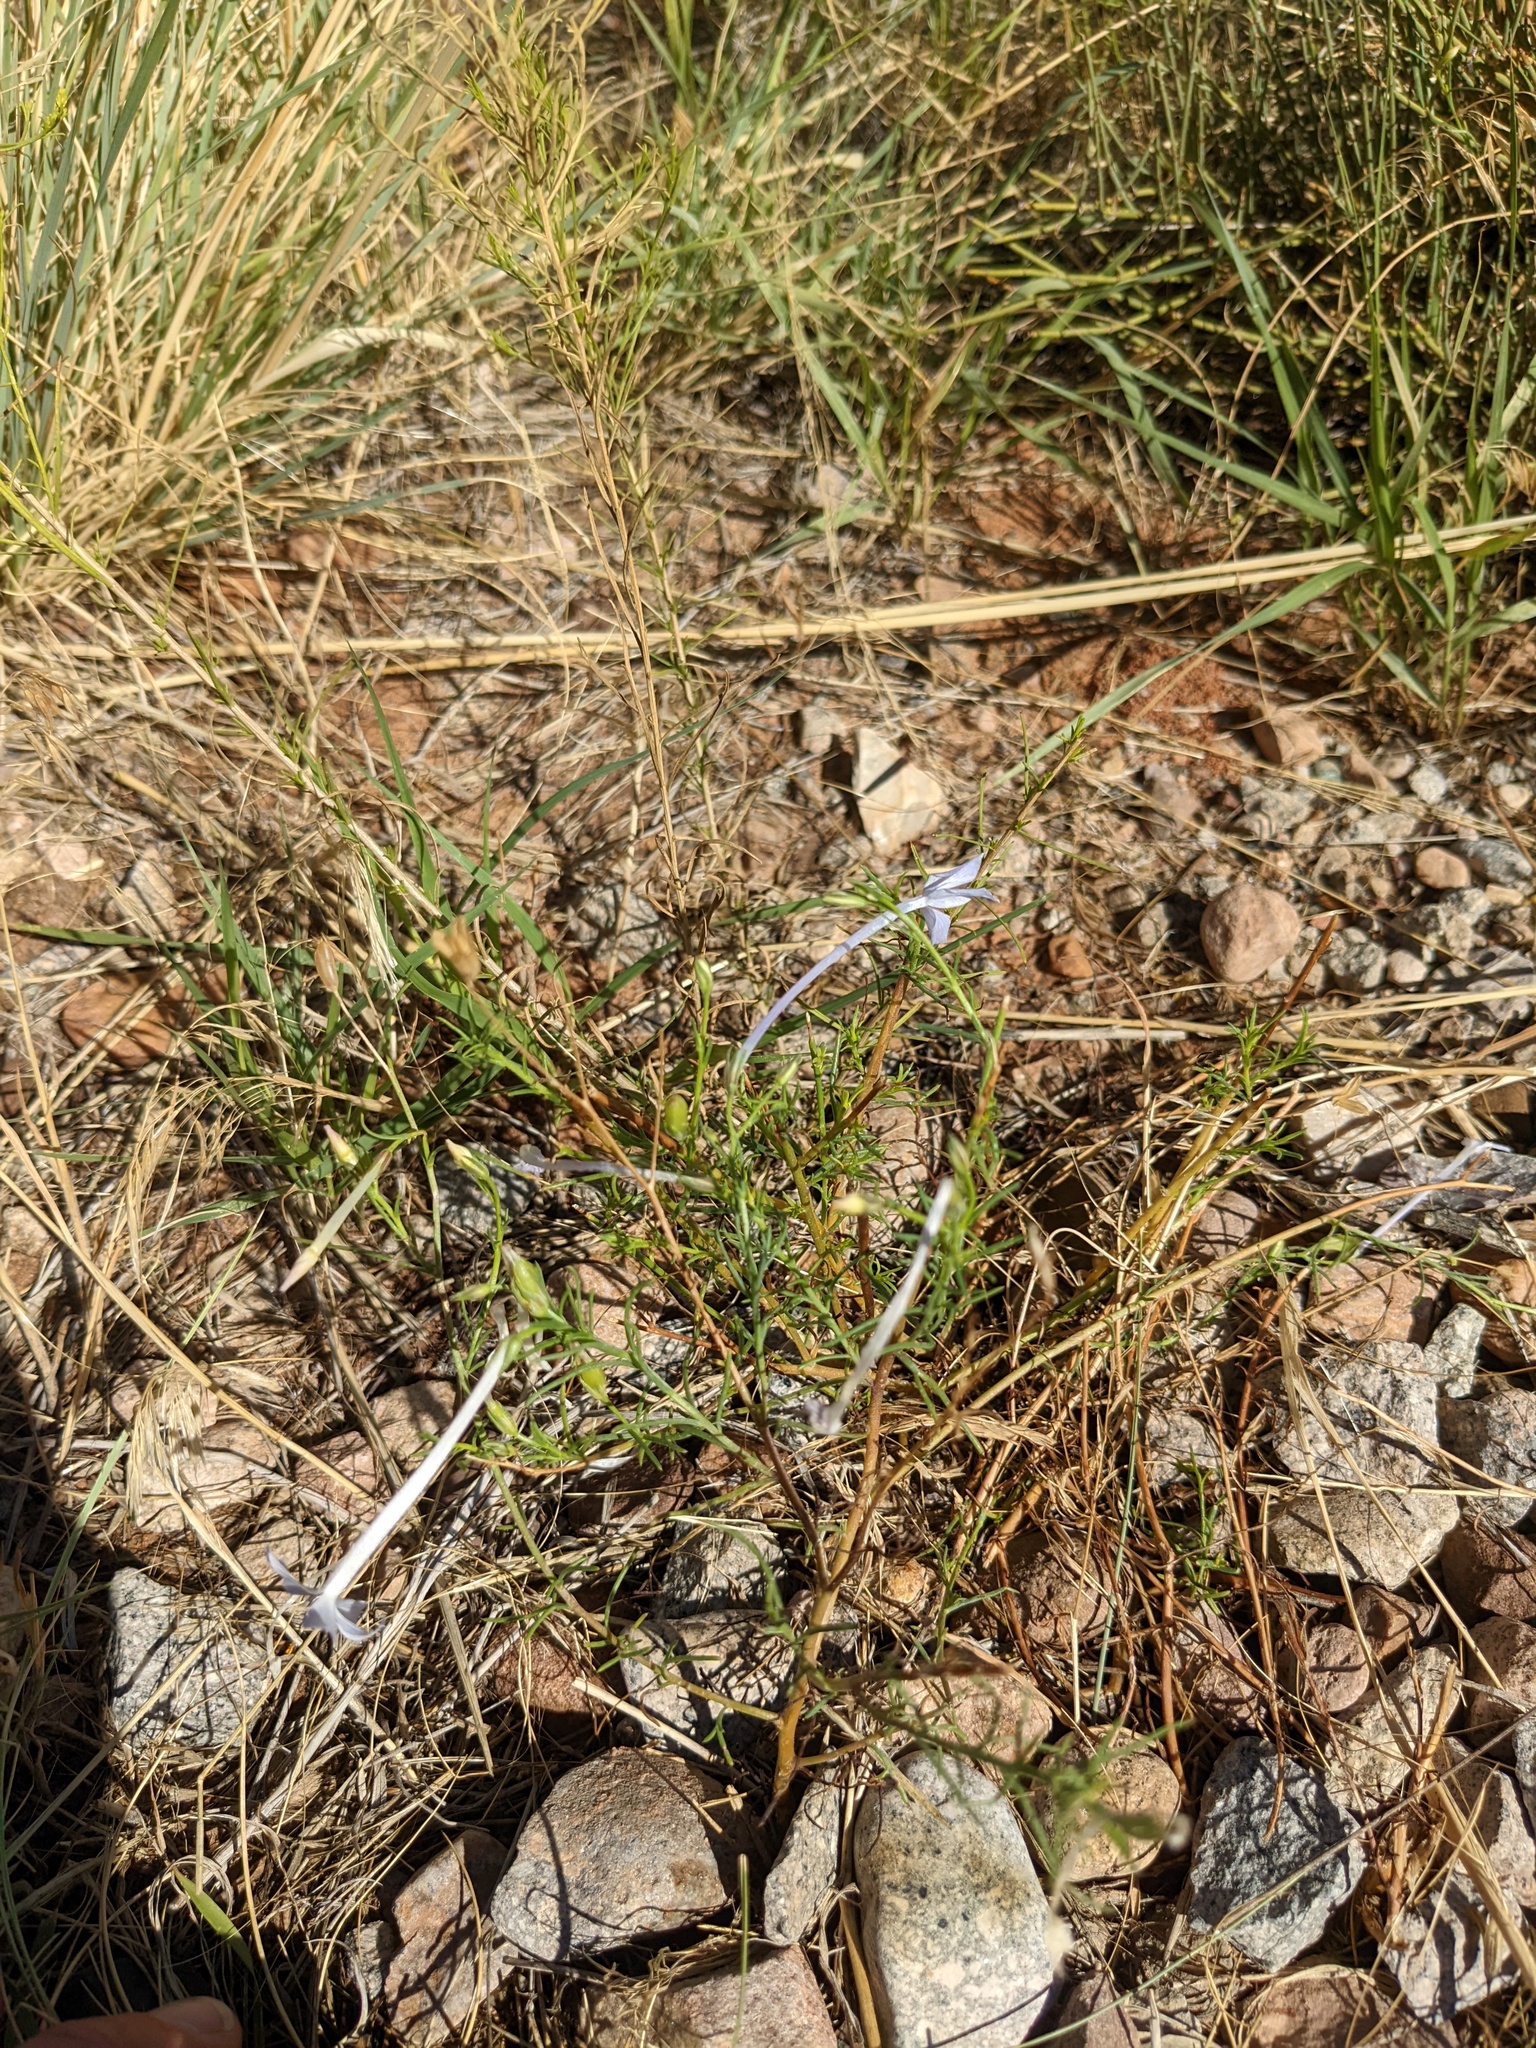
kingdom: Plantae
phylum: Tracheophyta
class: Magnoliopsida
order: Ericales
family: Polemoniaceae
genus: Ipomopsis
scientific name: Ipomopsis longiflora
